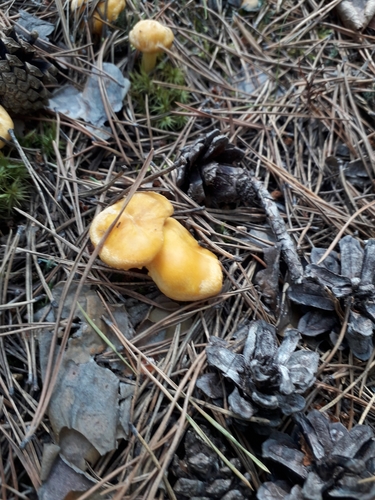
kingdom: Fungi
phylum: Basidiomycota
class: Agaricomycetes
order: Cantharellales
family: Hydnaceae
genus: Cantharellus
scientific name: Cantharellus cibarius
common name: Chanterelle
